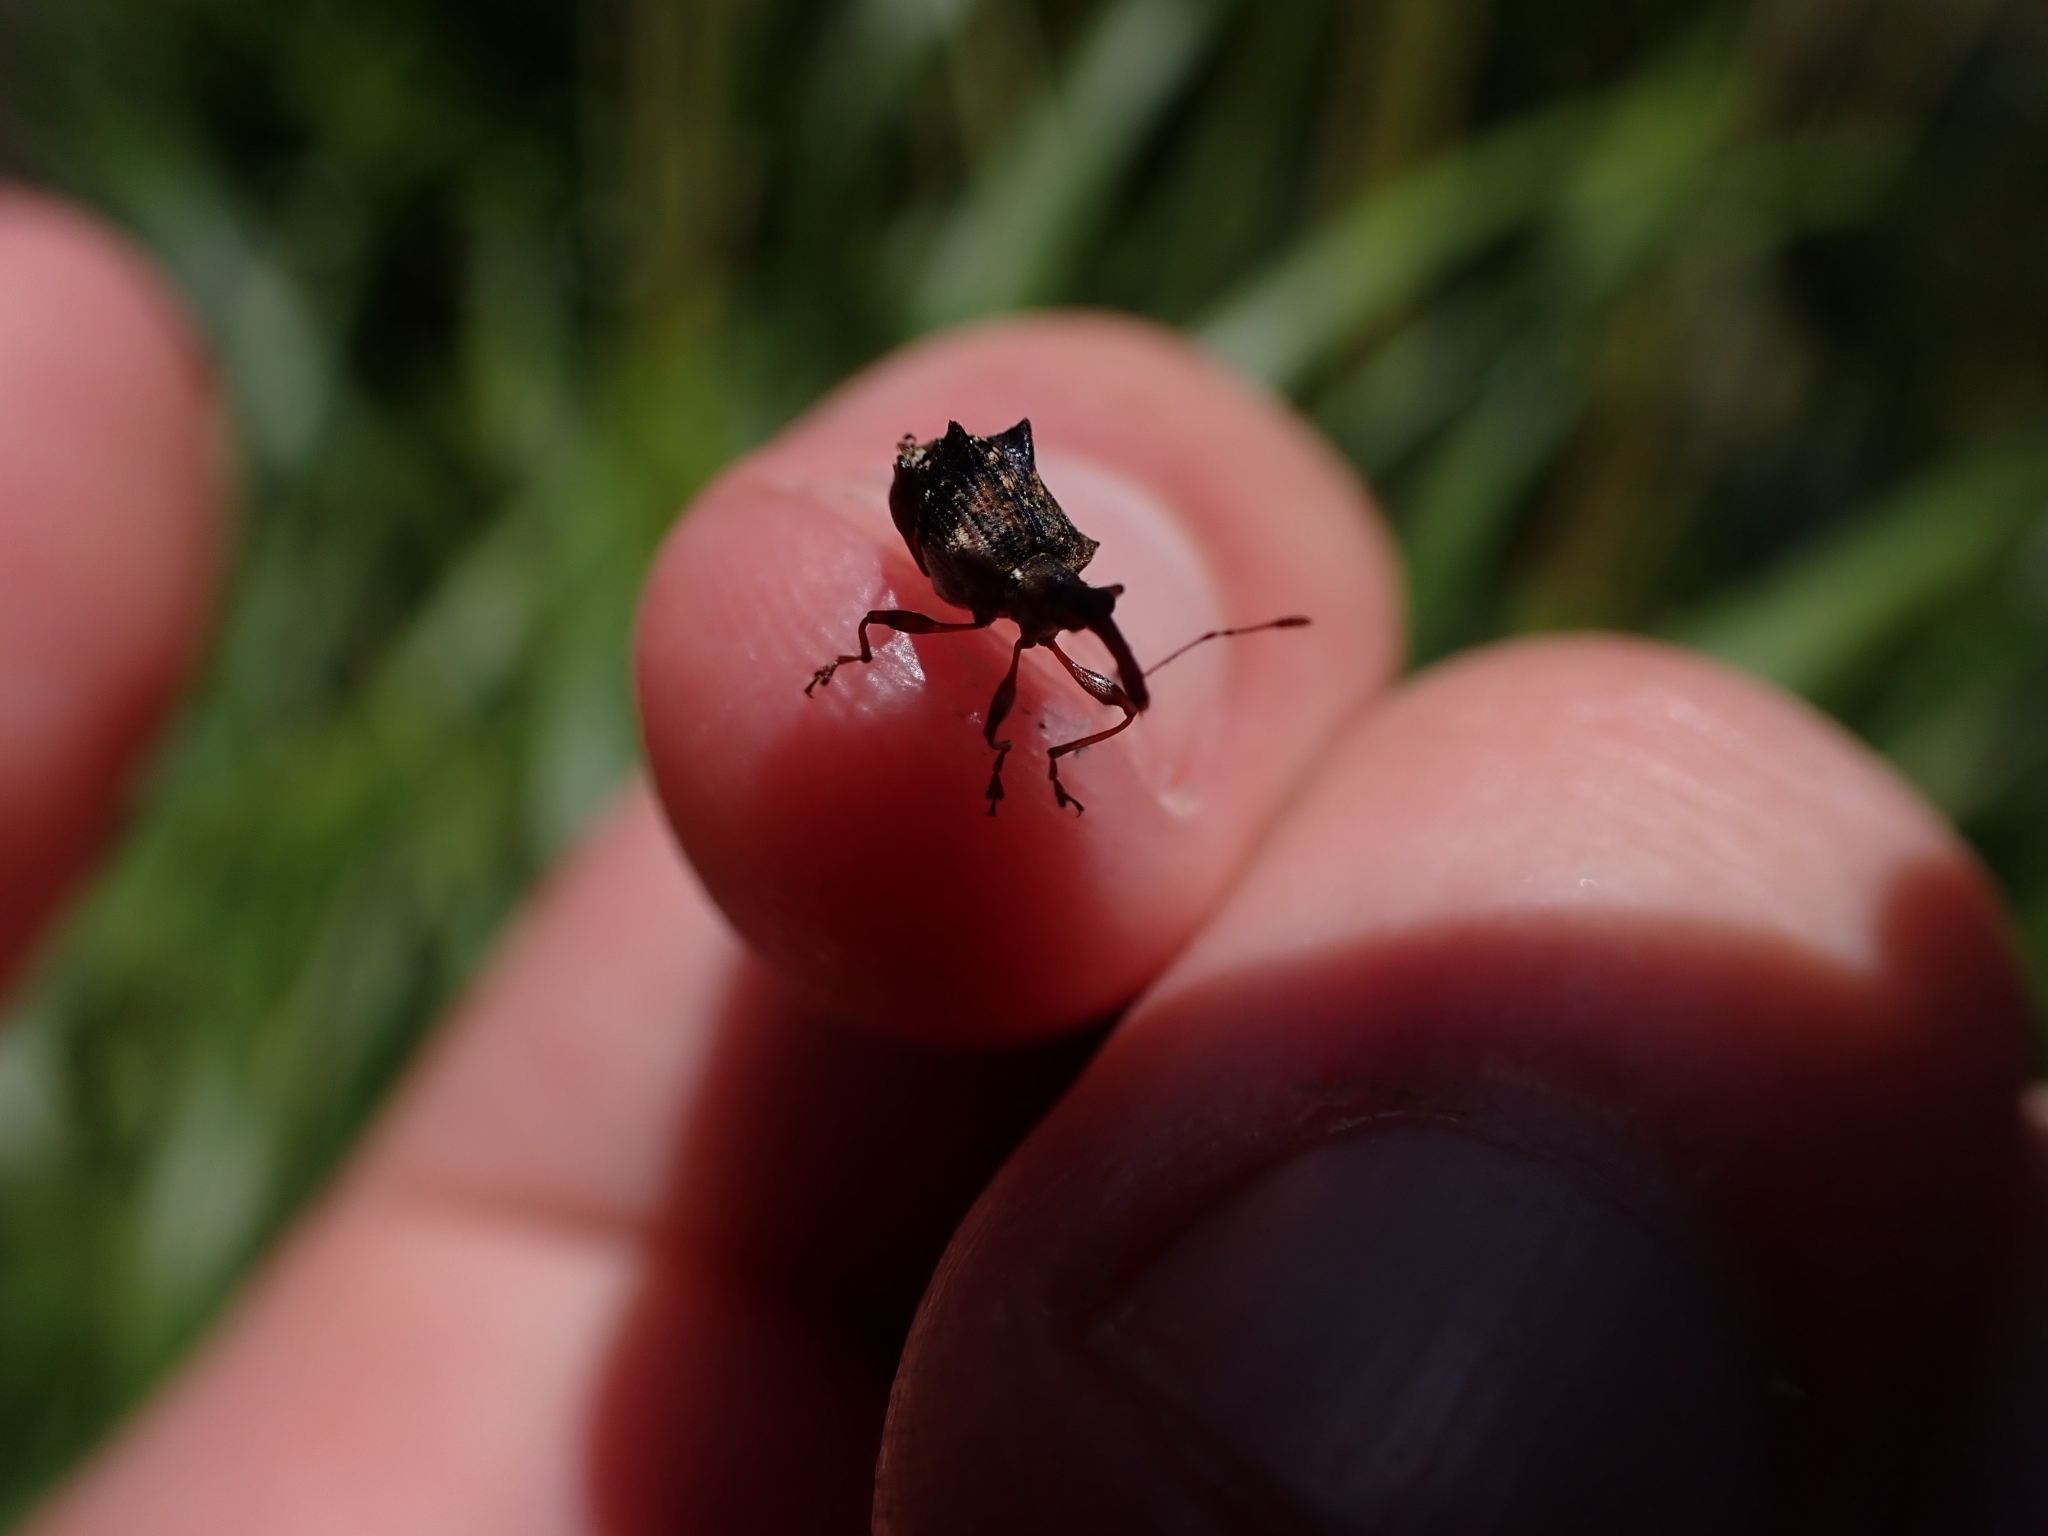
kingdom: Animalia
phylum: Arthropoda
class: Insecta
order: Coleoptera
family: Curculionidae
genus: Amylopterus
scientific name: Amylopterus pilosus
